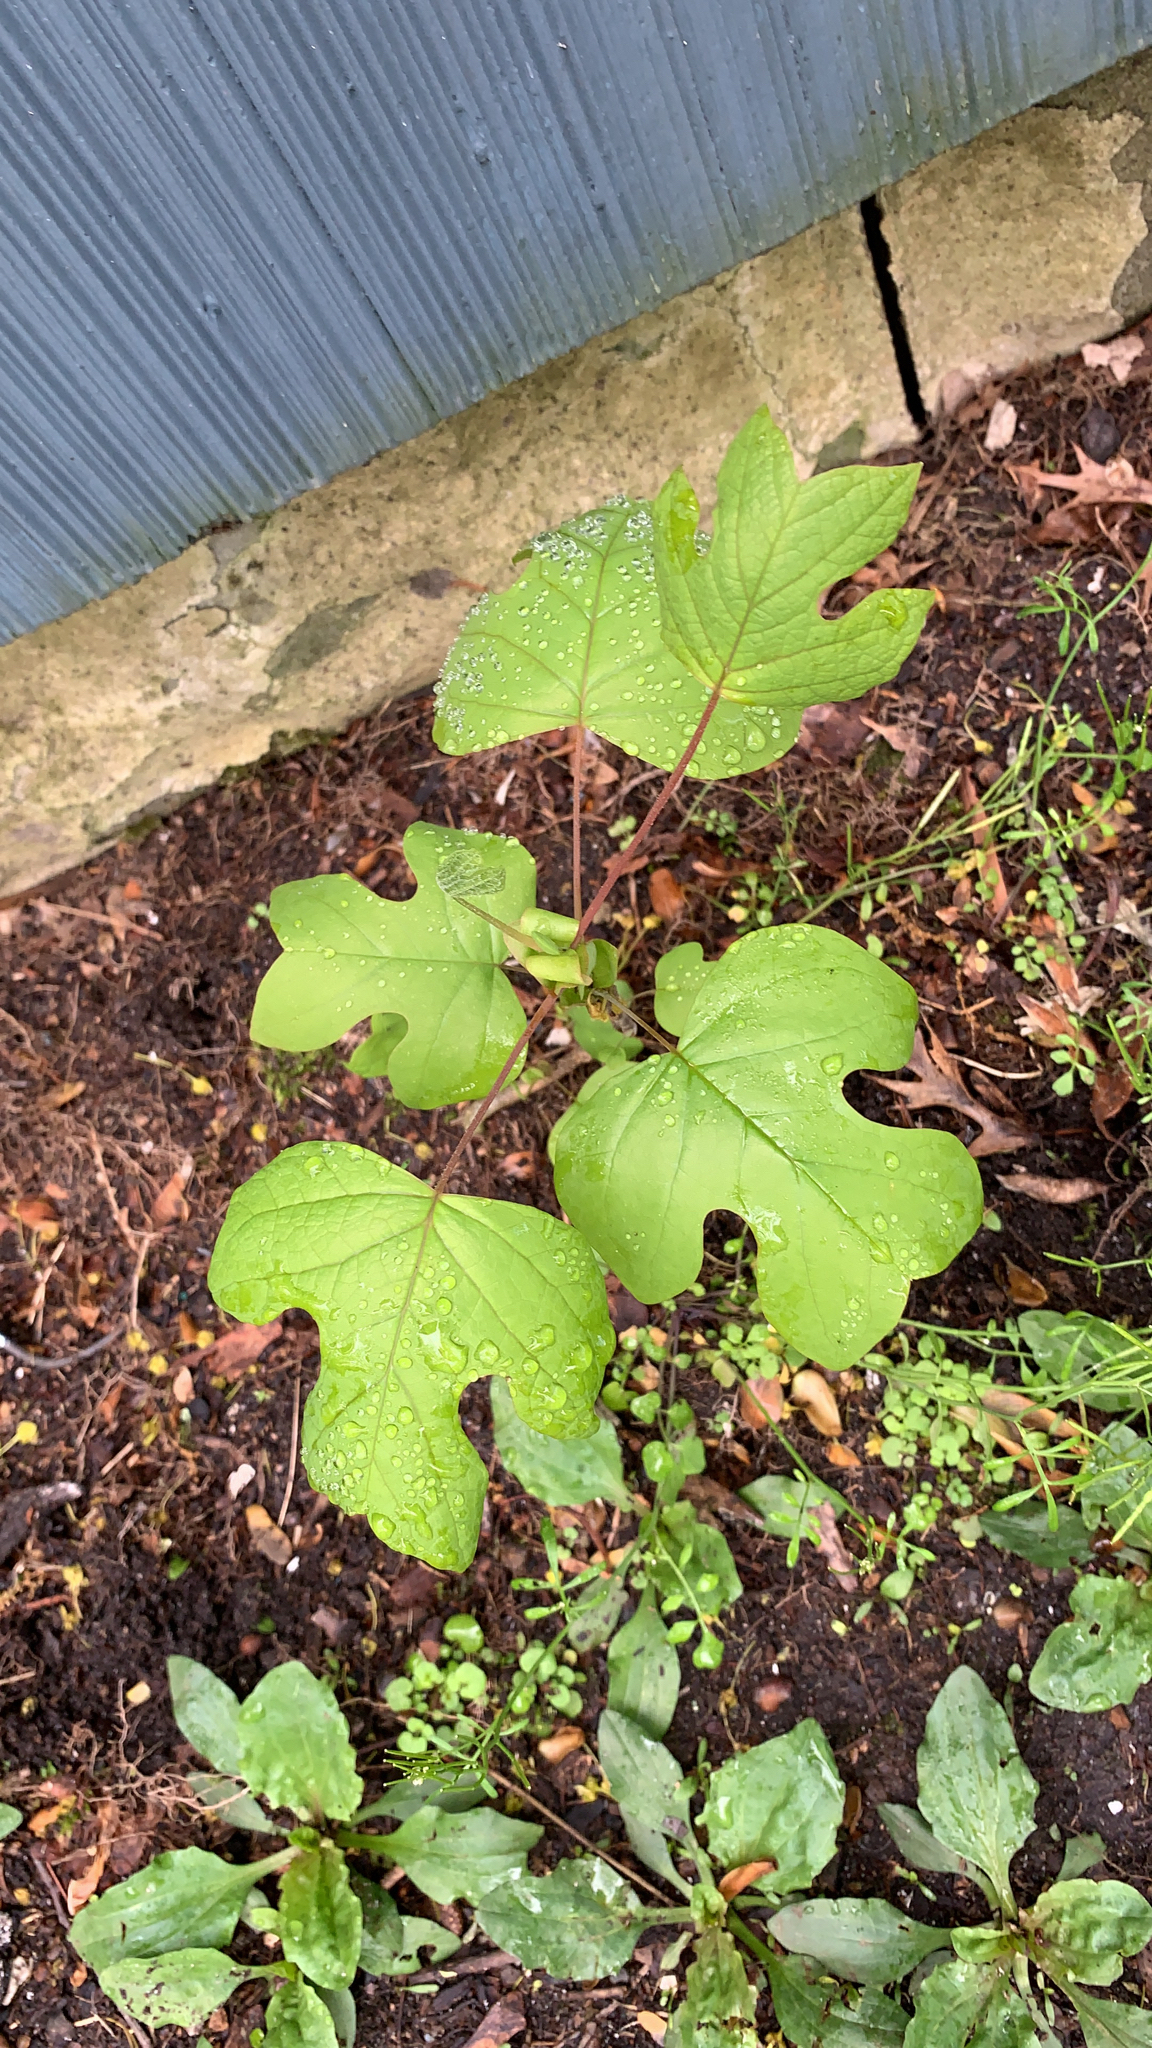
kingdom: Plantae
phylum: Tracheophyta
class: Magnoliopsida
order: Magnoliales
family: Magnoliaceae
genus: Liriodendron
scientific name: Liriodendron tulipifera
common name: Tulip tree
